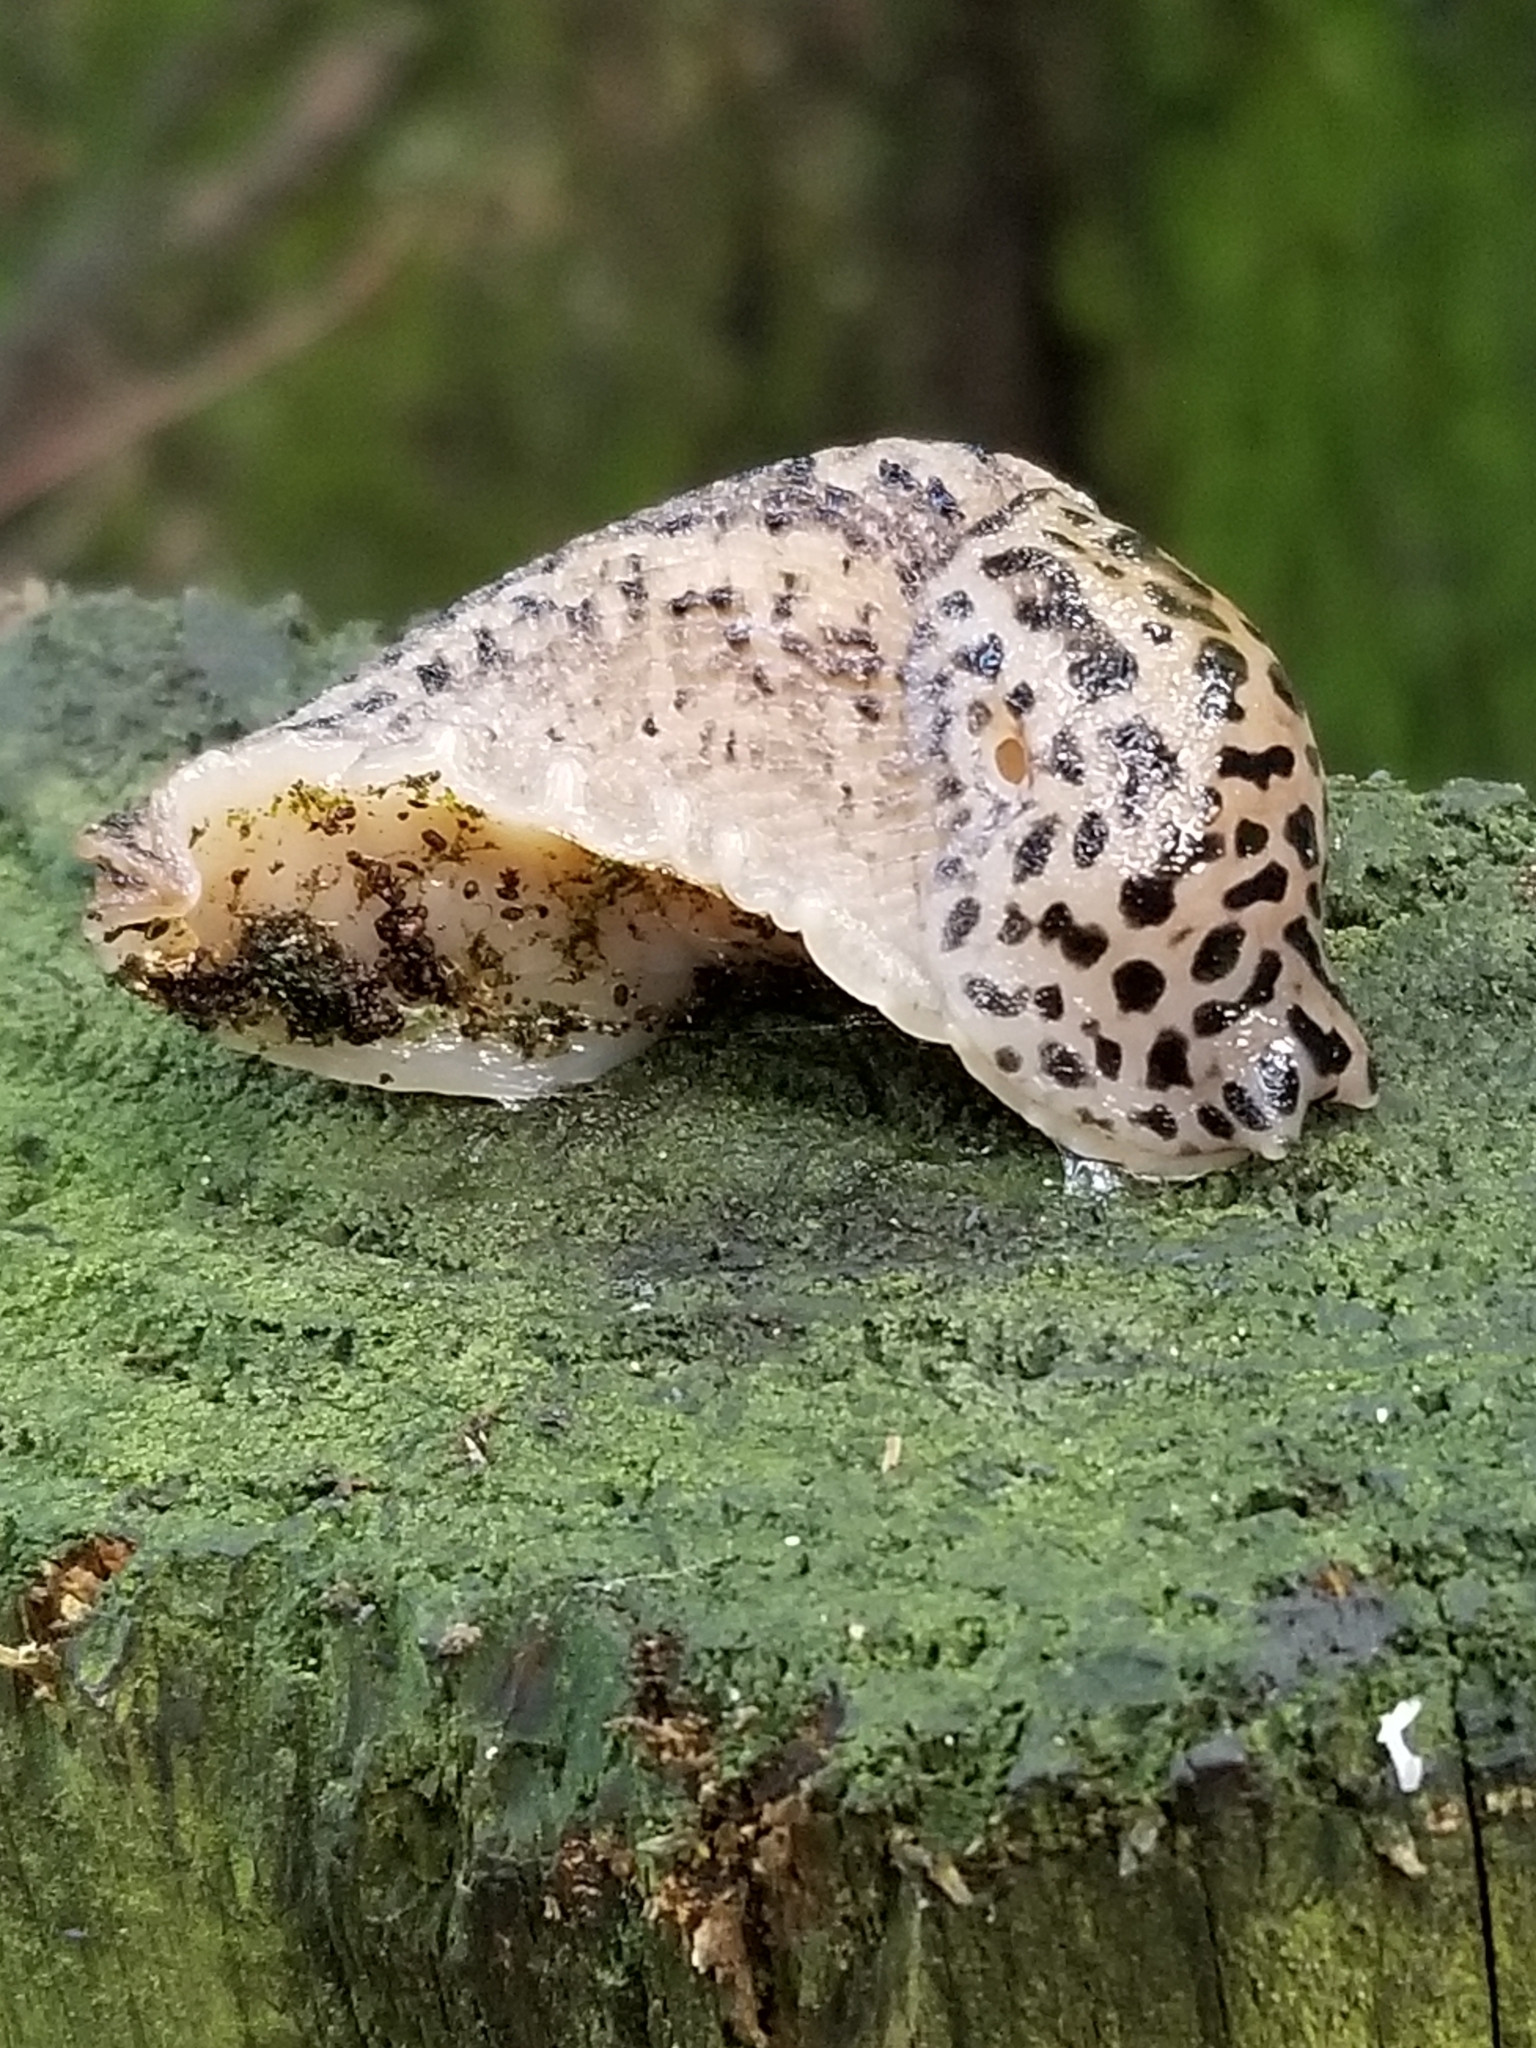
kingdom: Animalia
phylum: Mollusca
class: Gastropoda
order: Stylommatophora
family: Limacidae
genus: Limax
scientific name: Limax maximus
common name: Great grey slug
